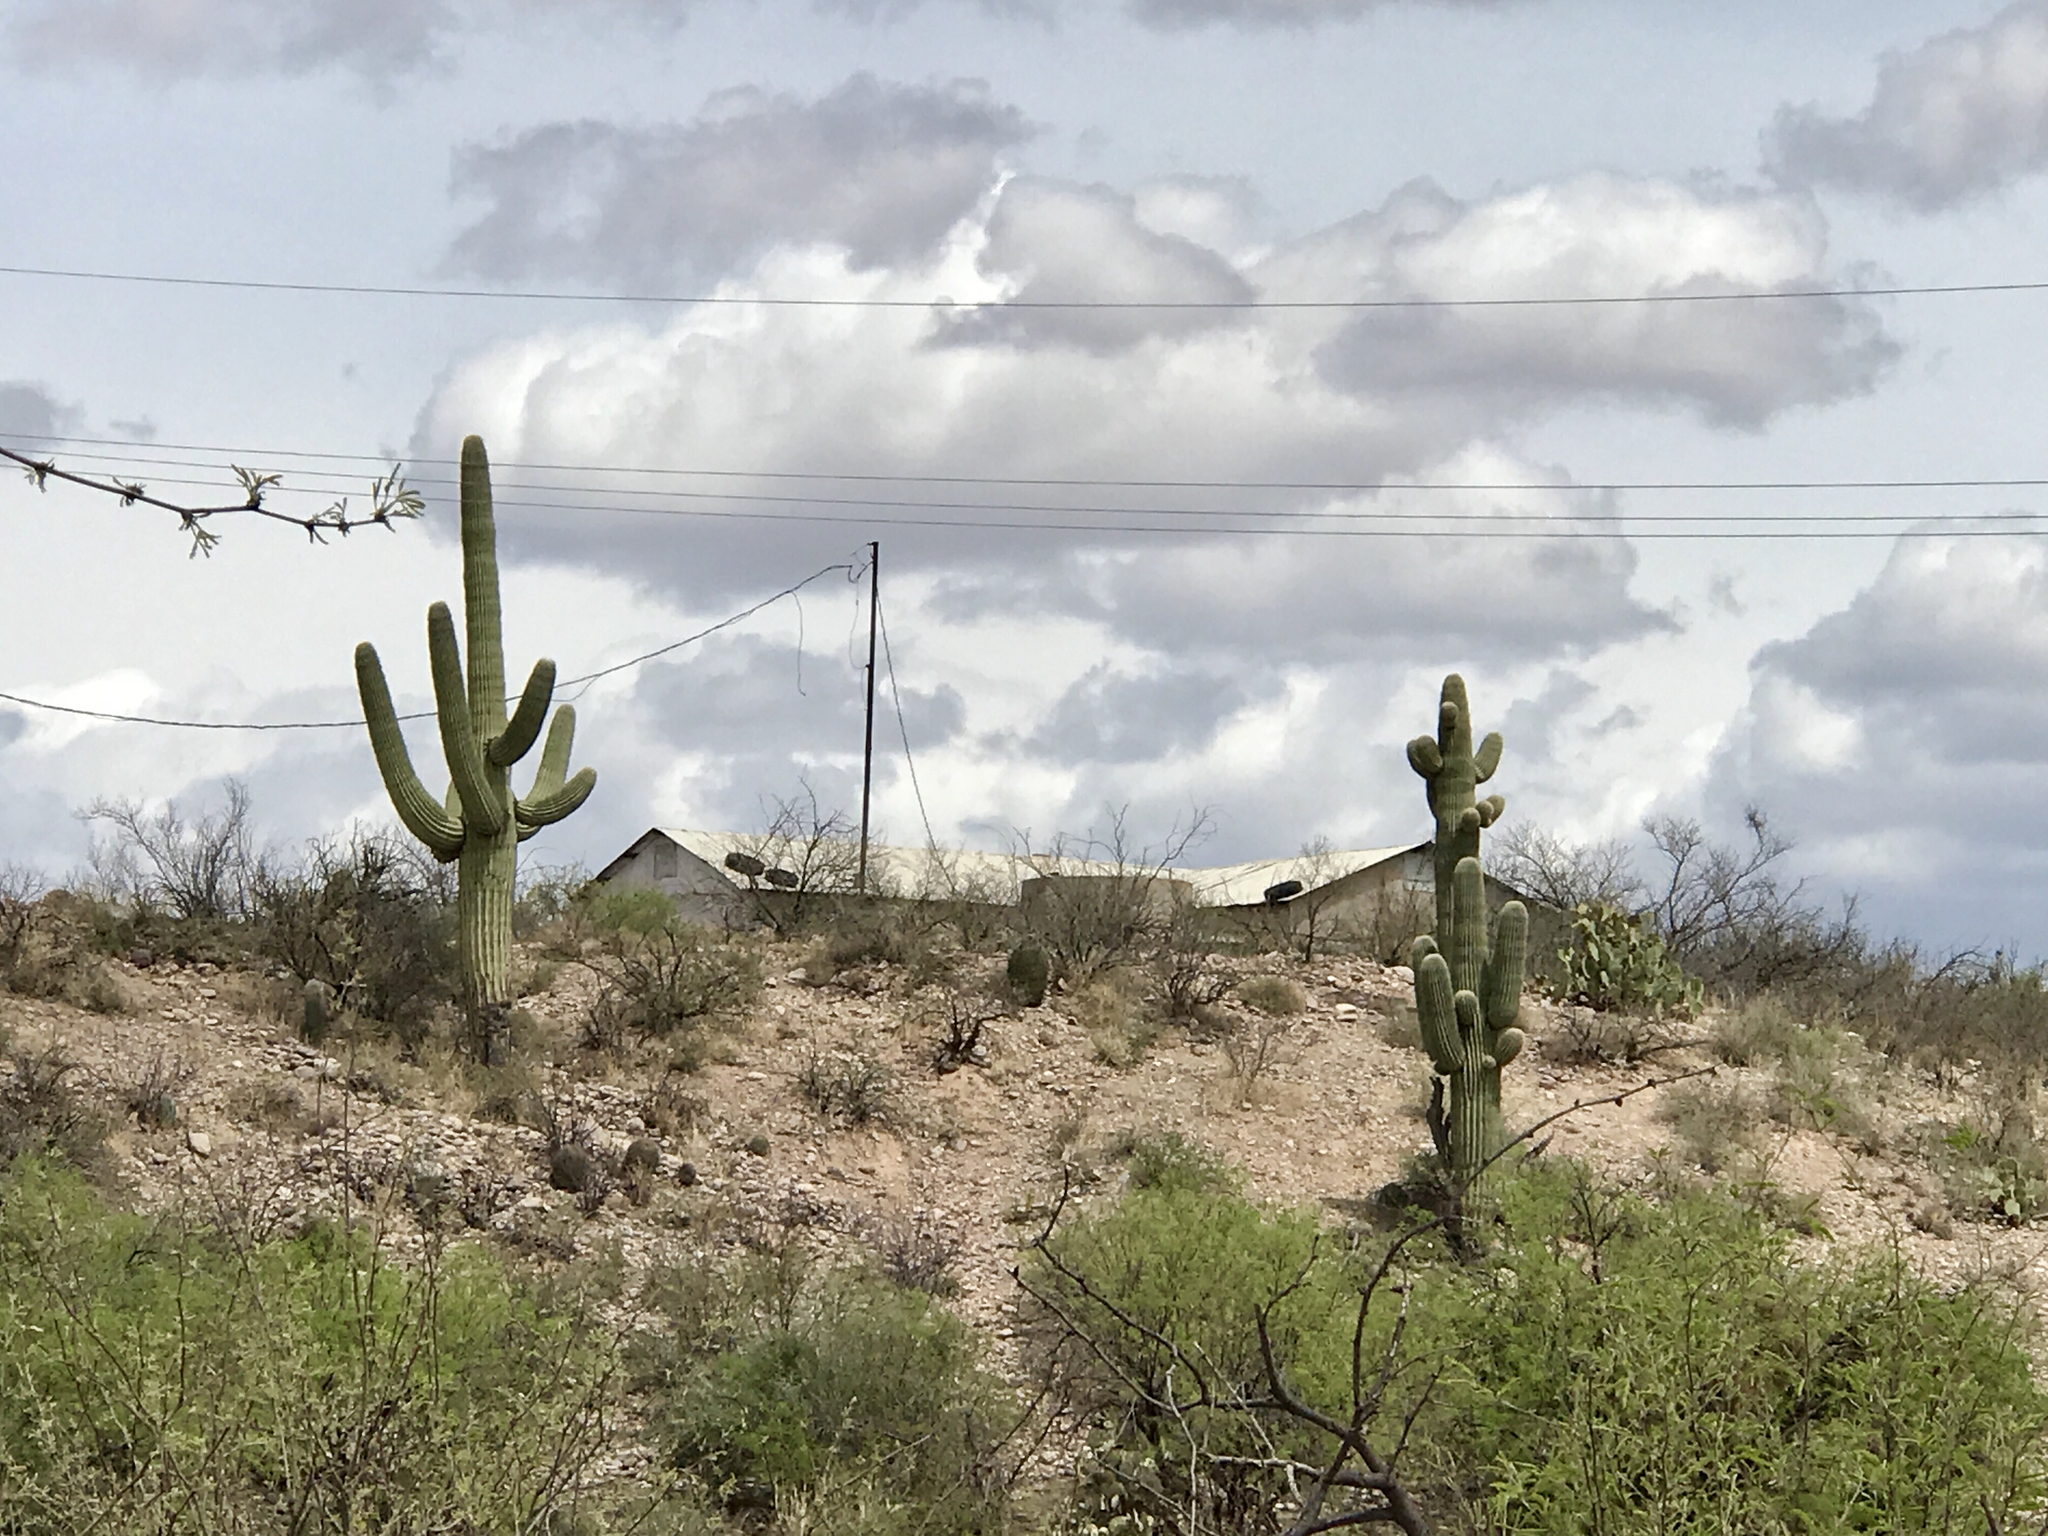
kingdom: Plantae
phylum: Tracheophyta
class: Magnoliopsida
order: Caryophyllales
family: Cactaceae
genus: Carnegiea
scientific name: Carnegiea gigantea
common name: Saguaro
